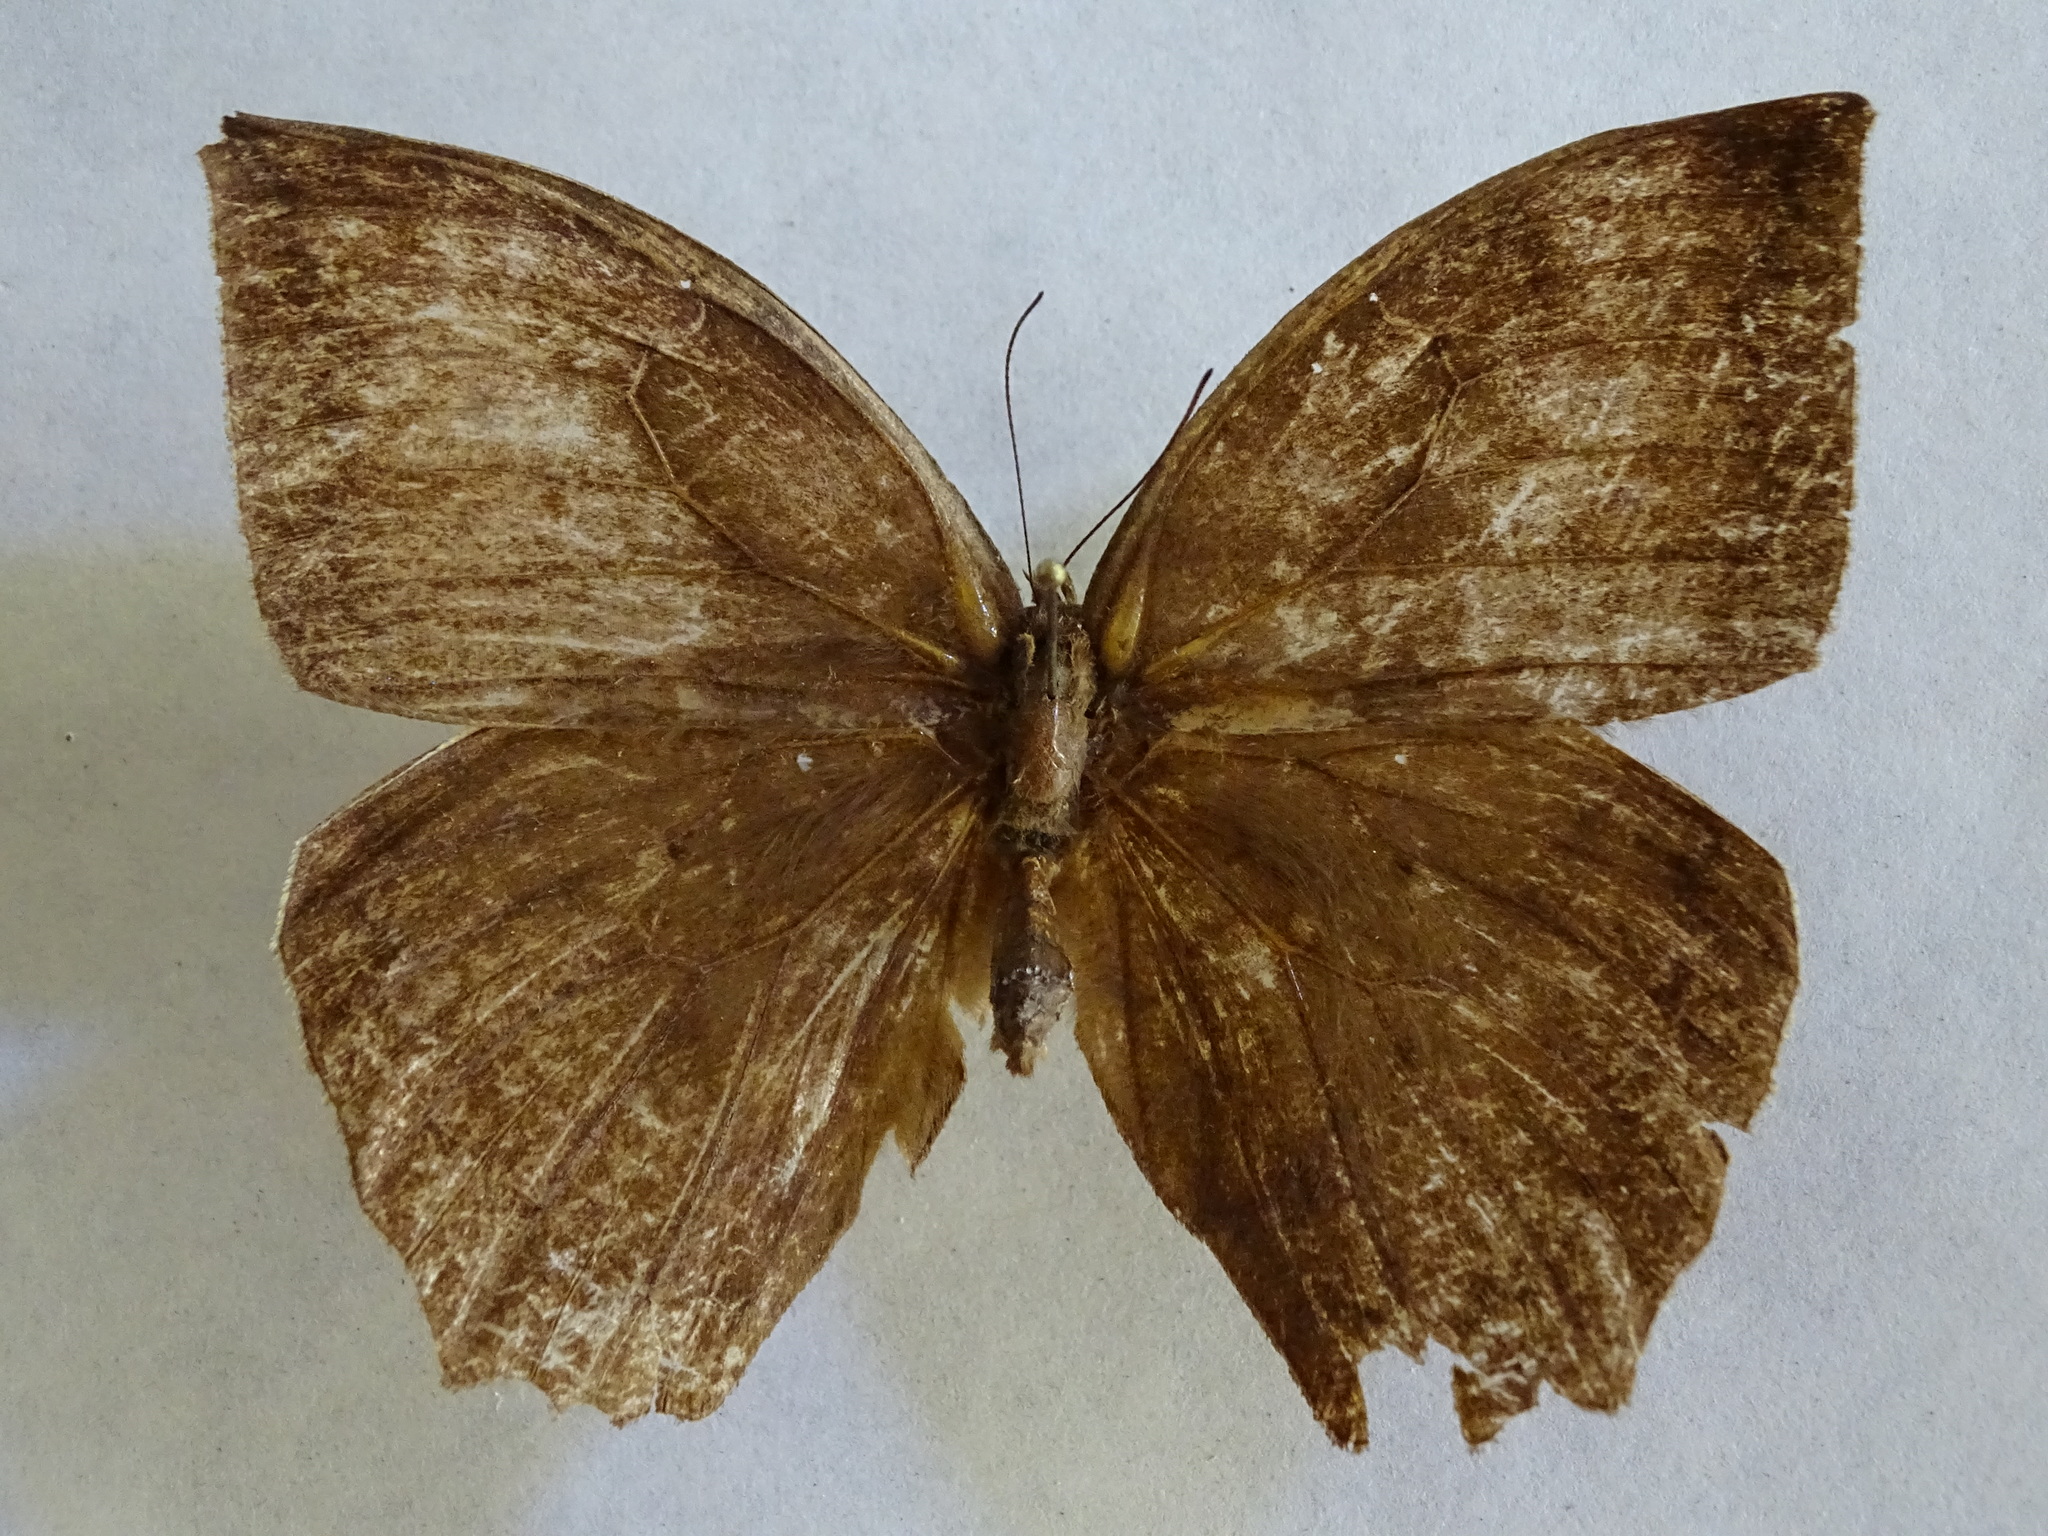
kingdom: Animalia
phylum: Arthropoda
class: Insecta
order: Lepidoptera
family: Nymphalidae
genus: Taygetis
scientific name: Taygetis mermeria
